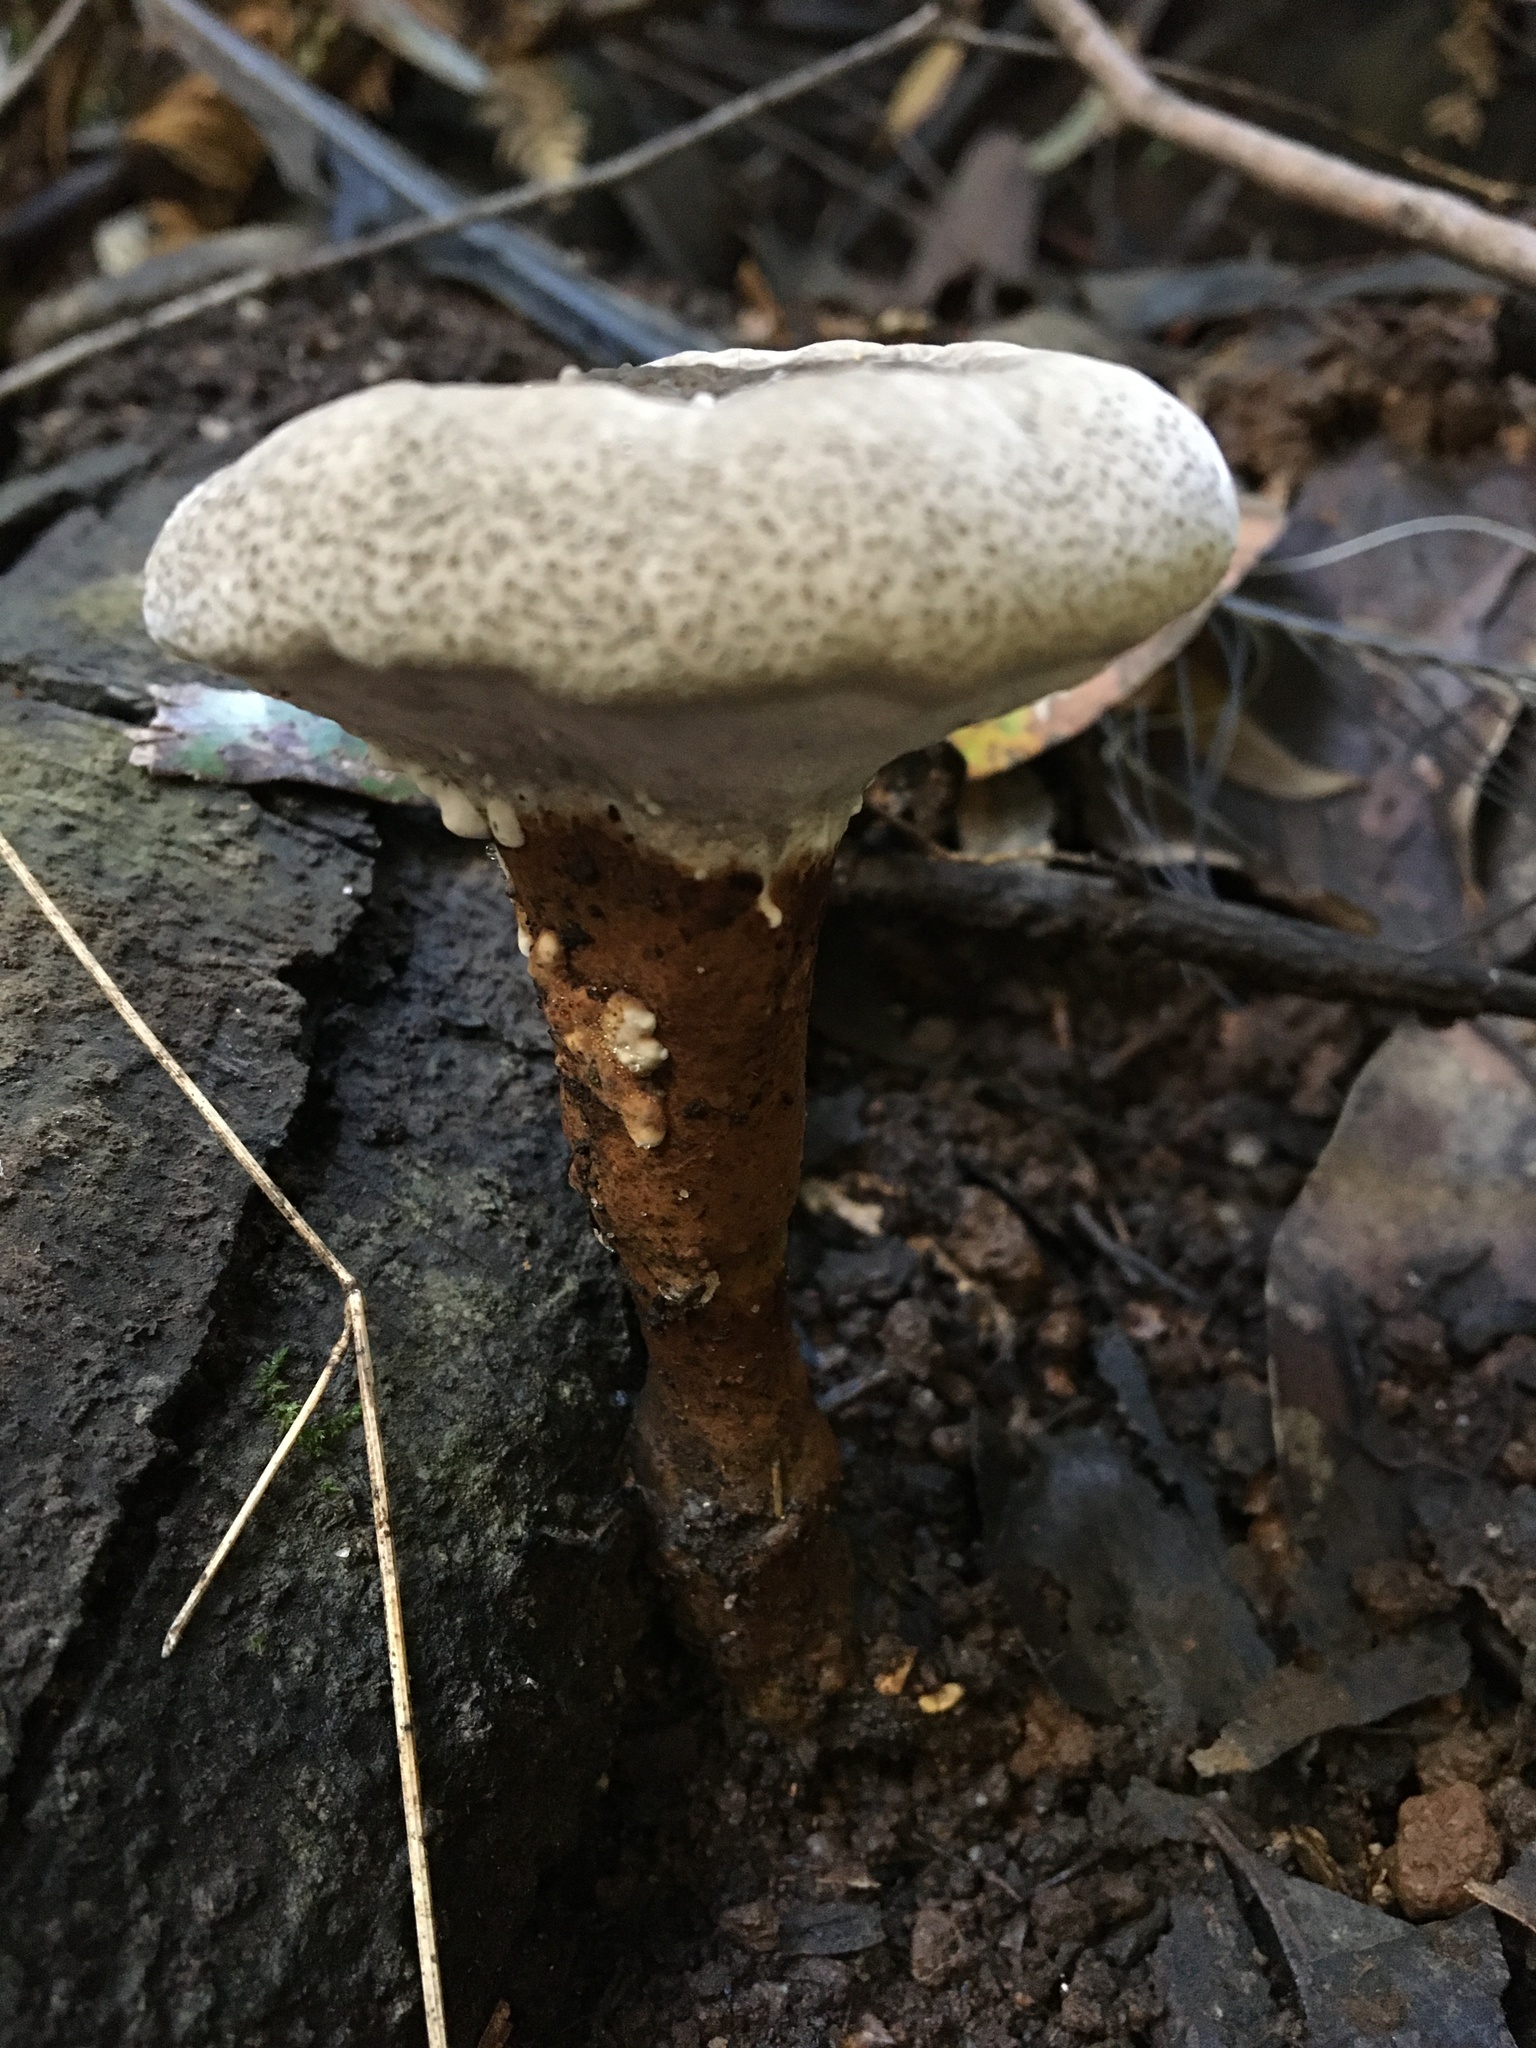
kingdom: Fungi
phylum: Basidiomycota
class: Agaricomycetes
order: Polyporales
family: Ganodermataceae
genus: Sanguinoderma
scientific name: Sanguinoderma rude
